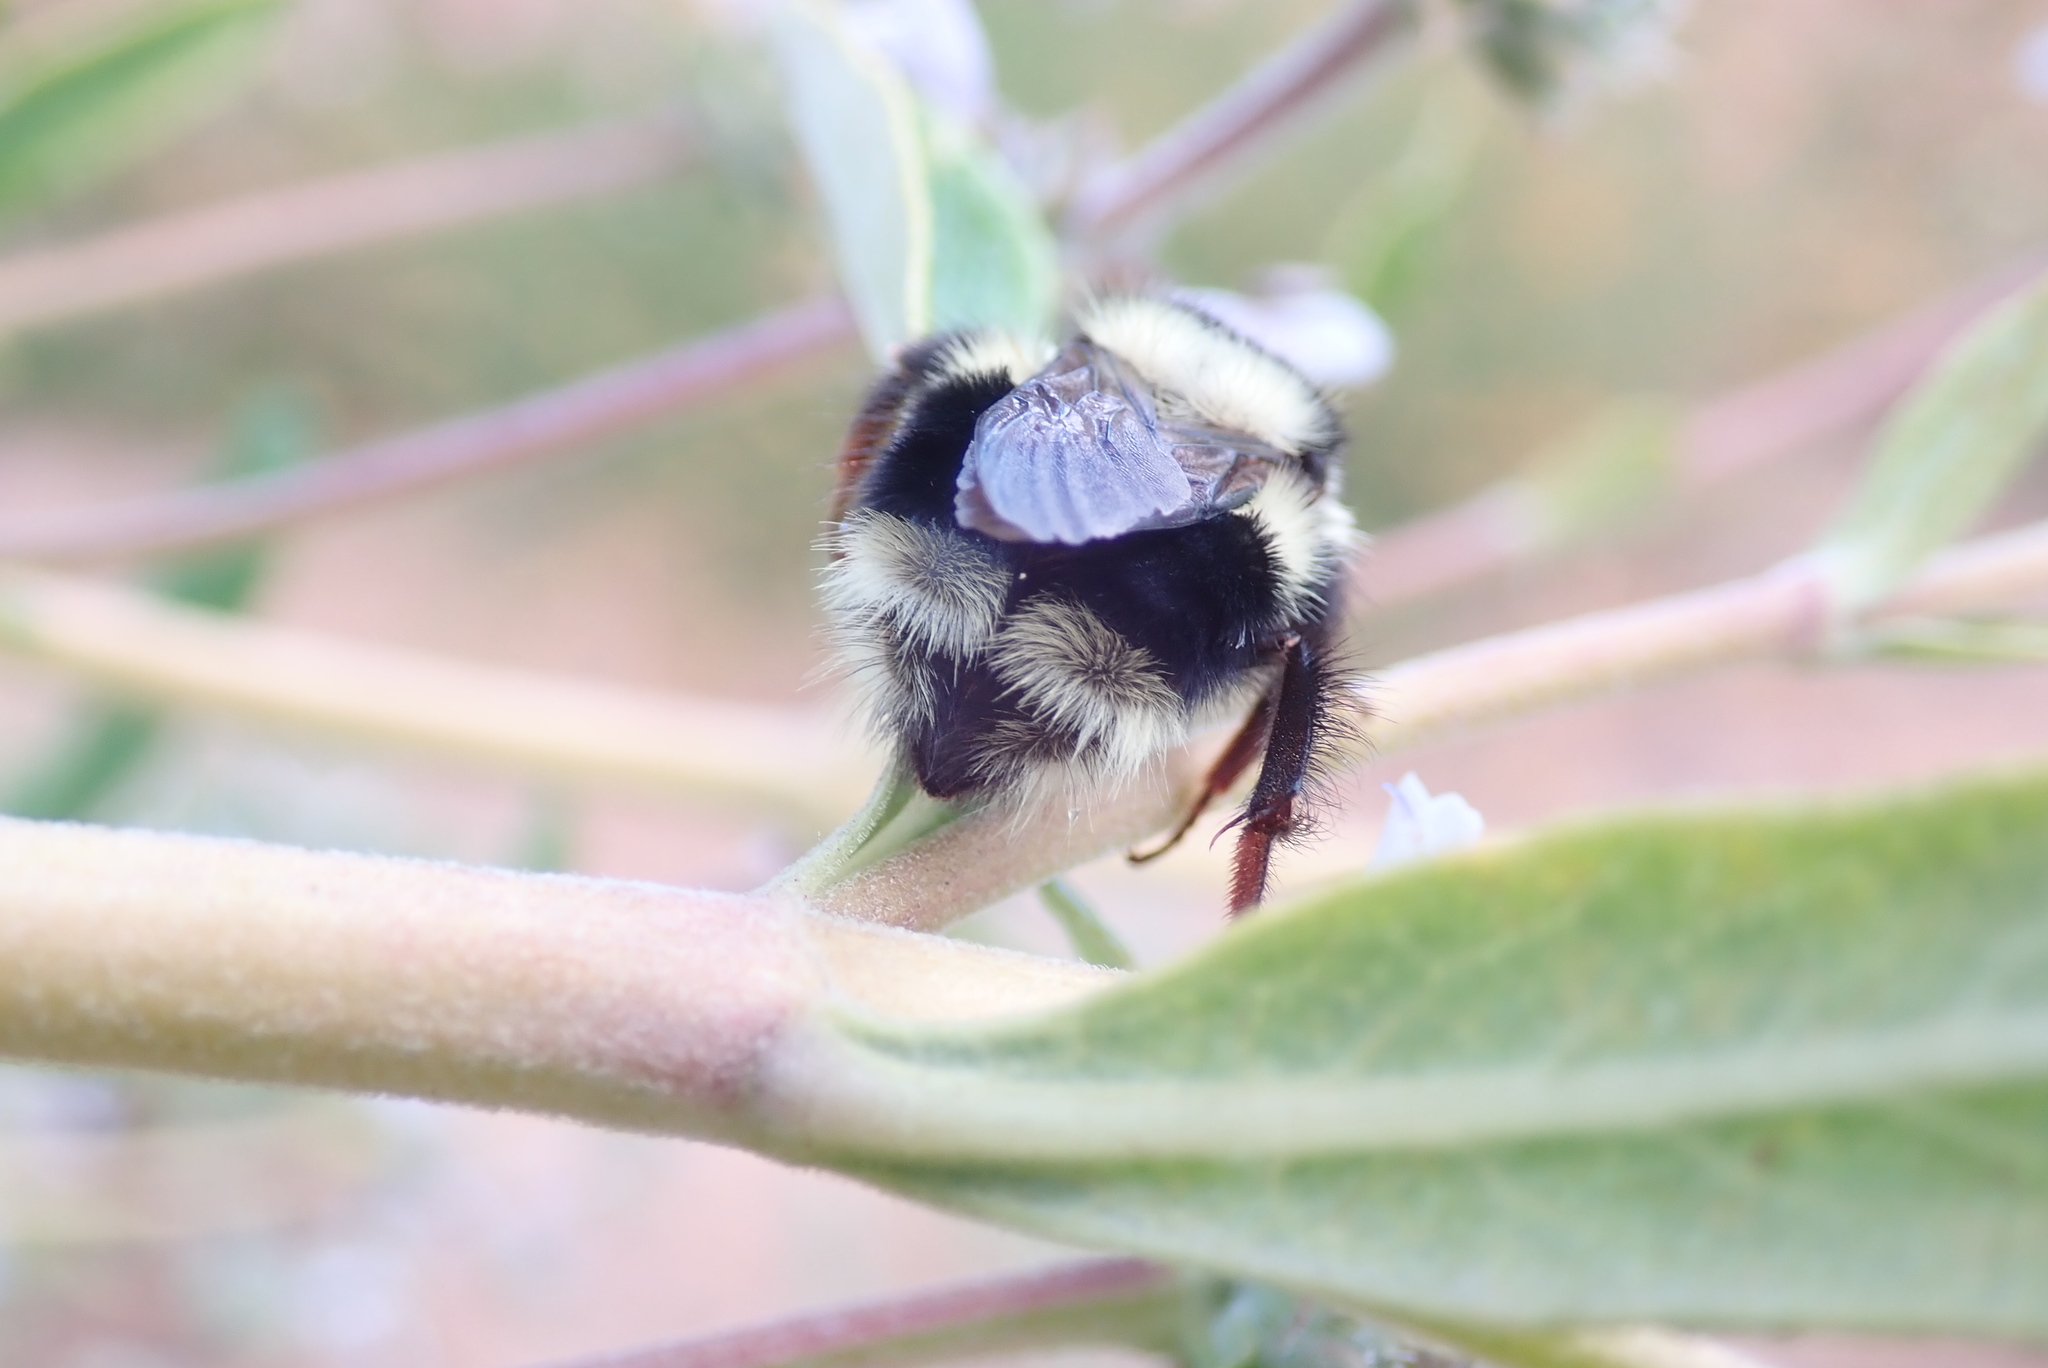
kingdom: Animalia
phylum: Arthropoda
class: Insecta
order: Hymenoptera
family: Apidae
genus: Bombus
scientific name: Bombus melanopygus
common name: Black tail bumble bee
